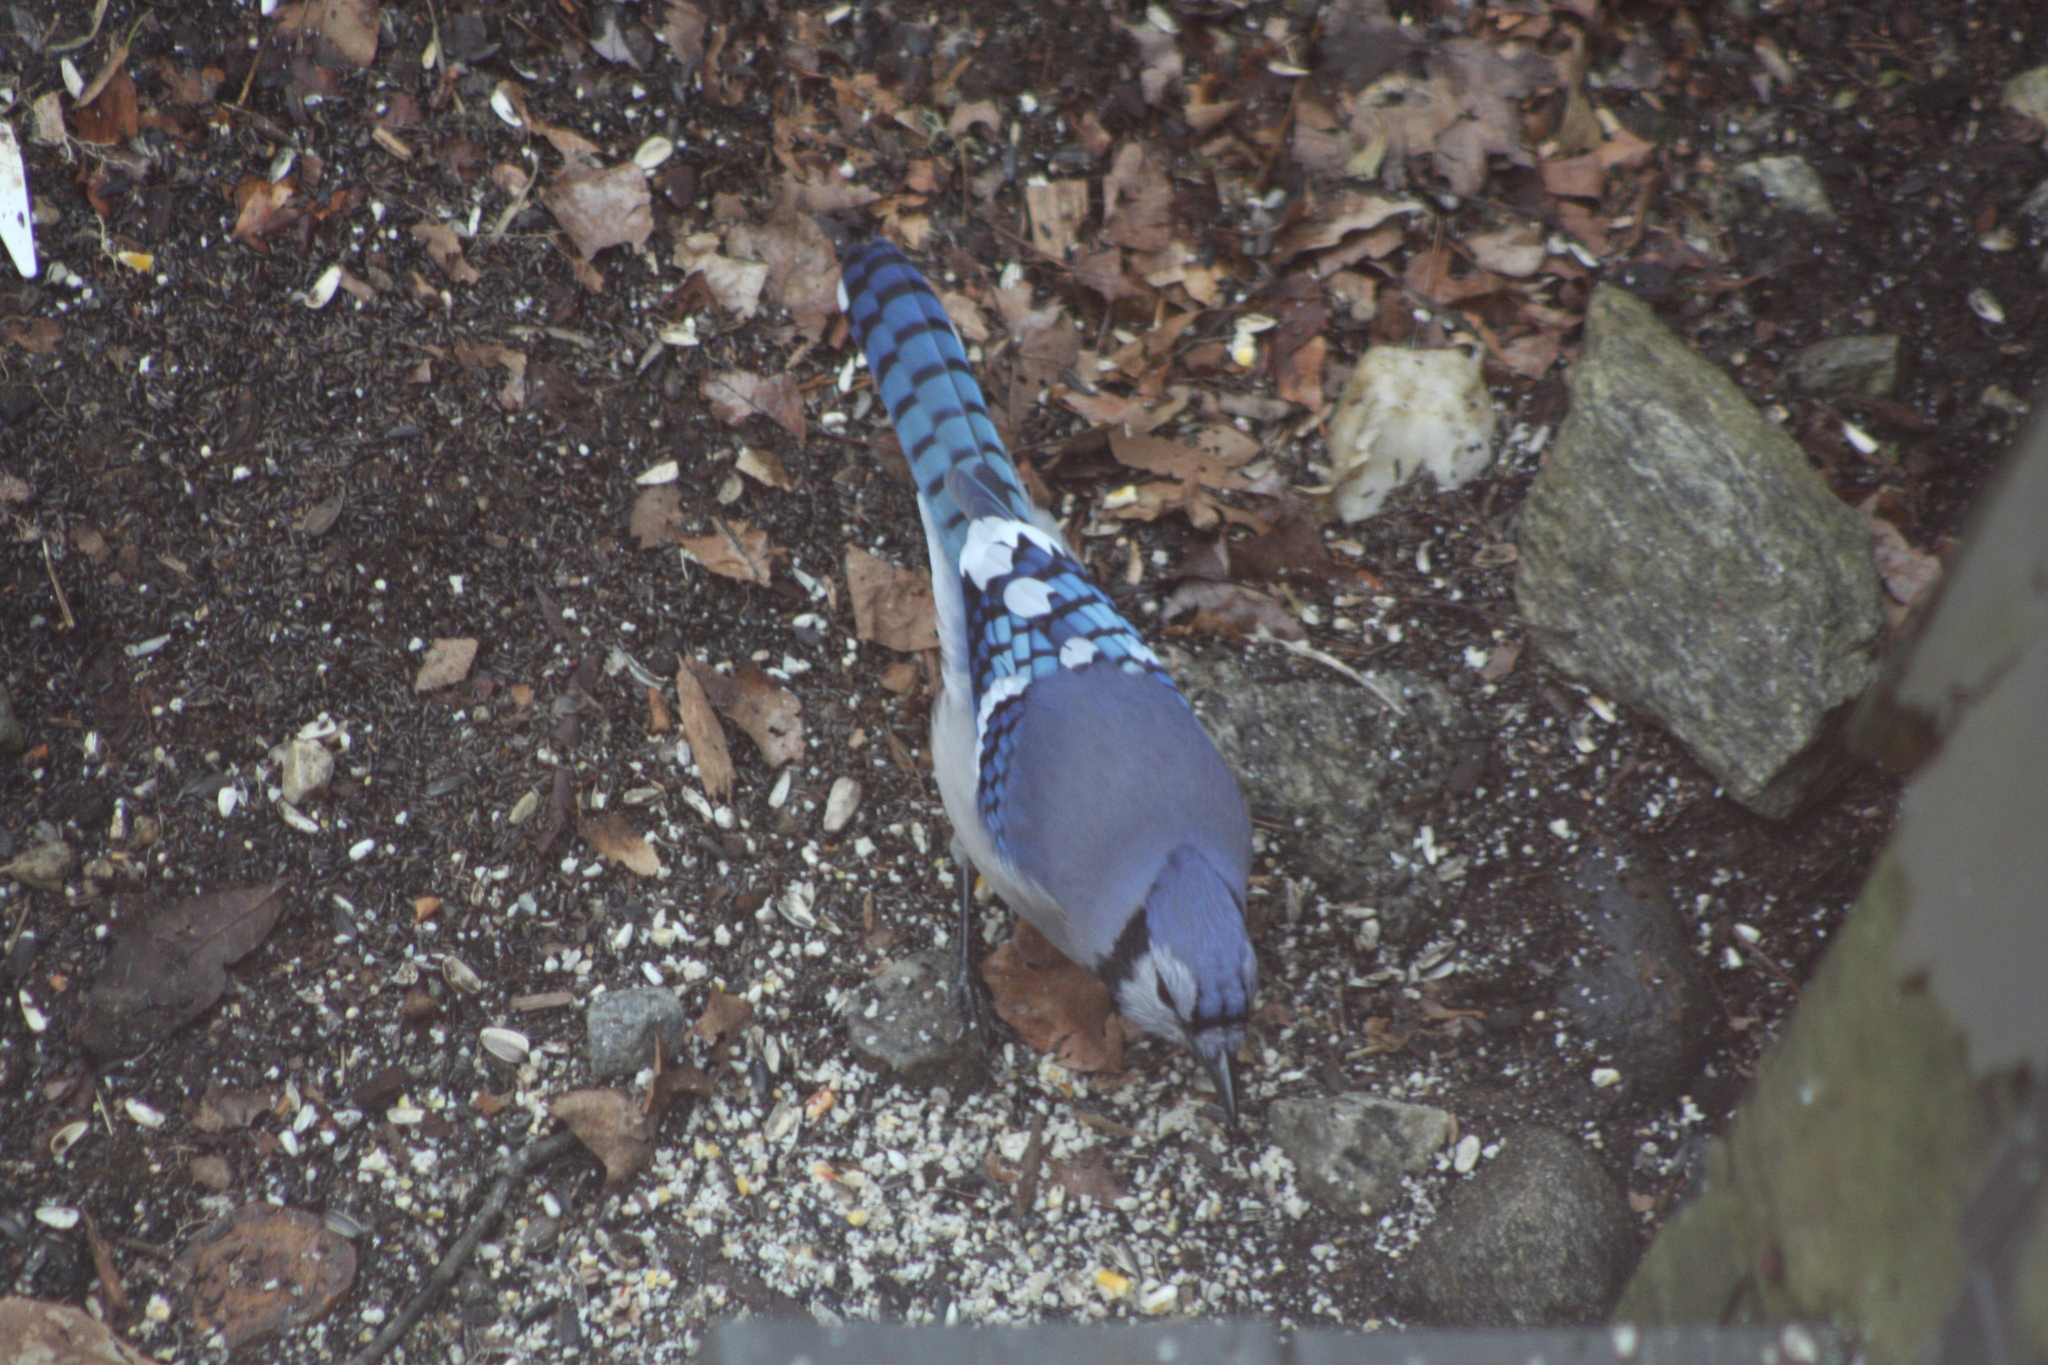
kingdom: Animalia
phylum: Chordata
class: Aves
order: Passeriformes
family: Corvidae
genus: Cyanocitta
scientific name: Cyanocitta cristata
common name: Blue jay
